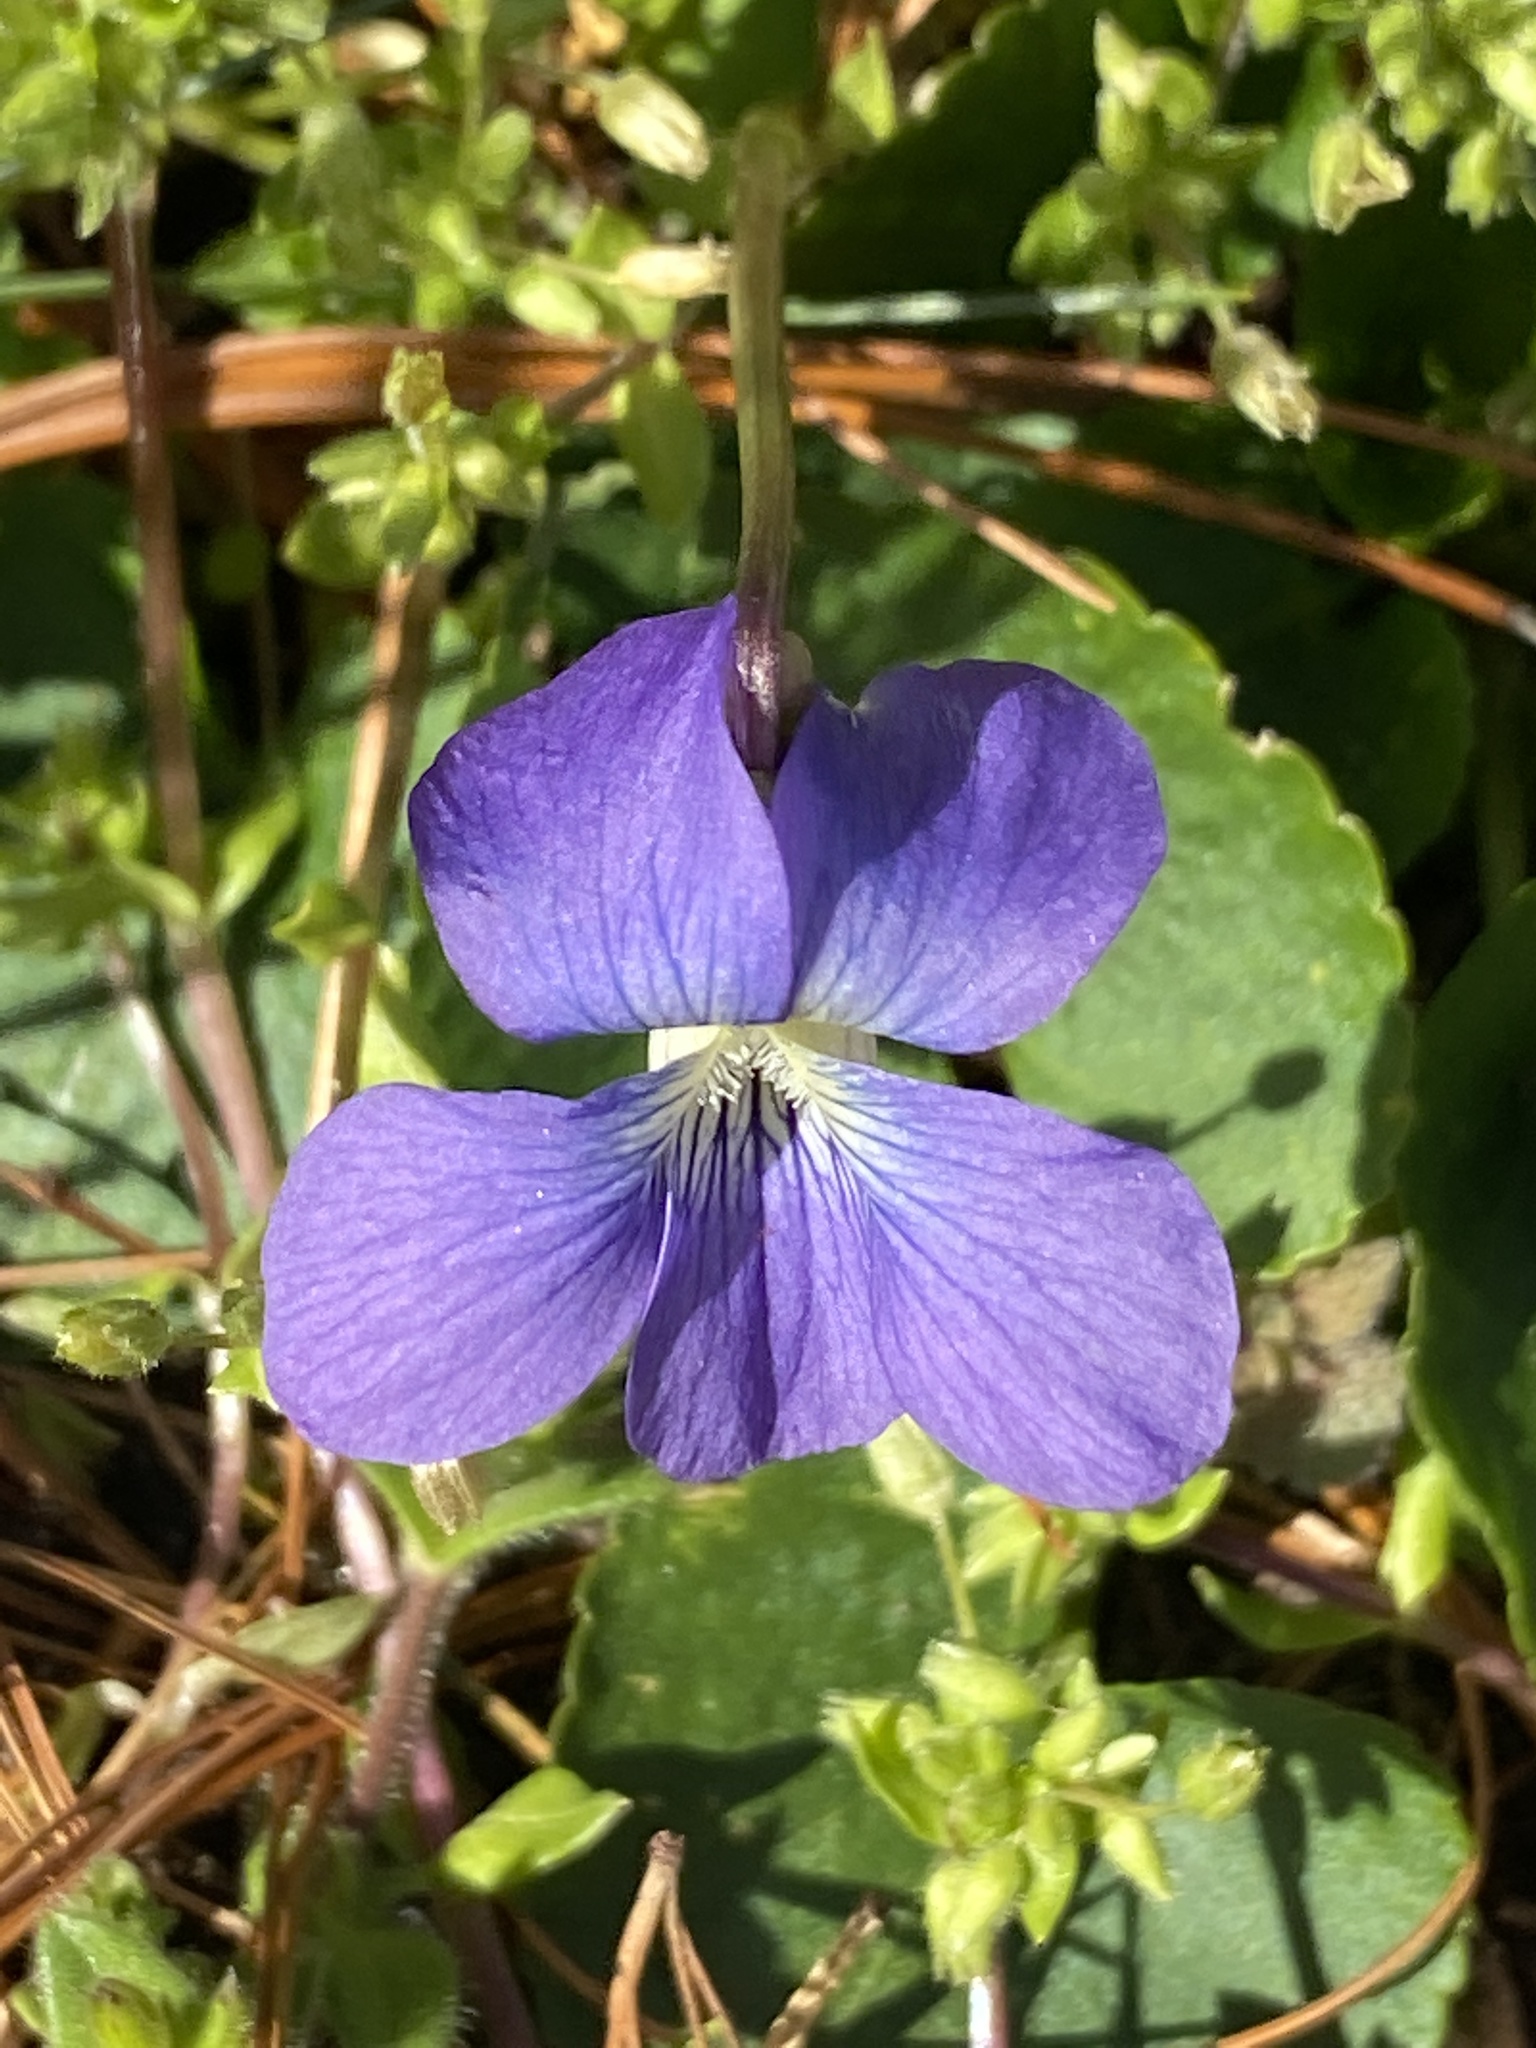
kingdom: Plantae
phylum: Tracheophyta
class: Magnoliopsida
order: Malpighiales
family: Violaceae
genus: Viola
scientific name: Viola sororia
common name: Dooryard violet
